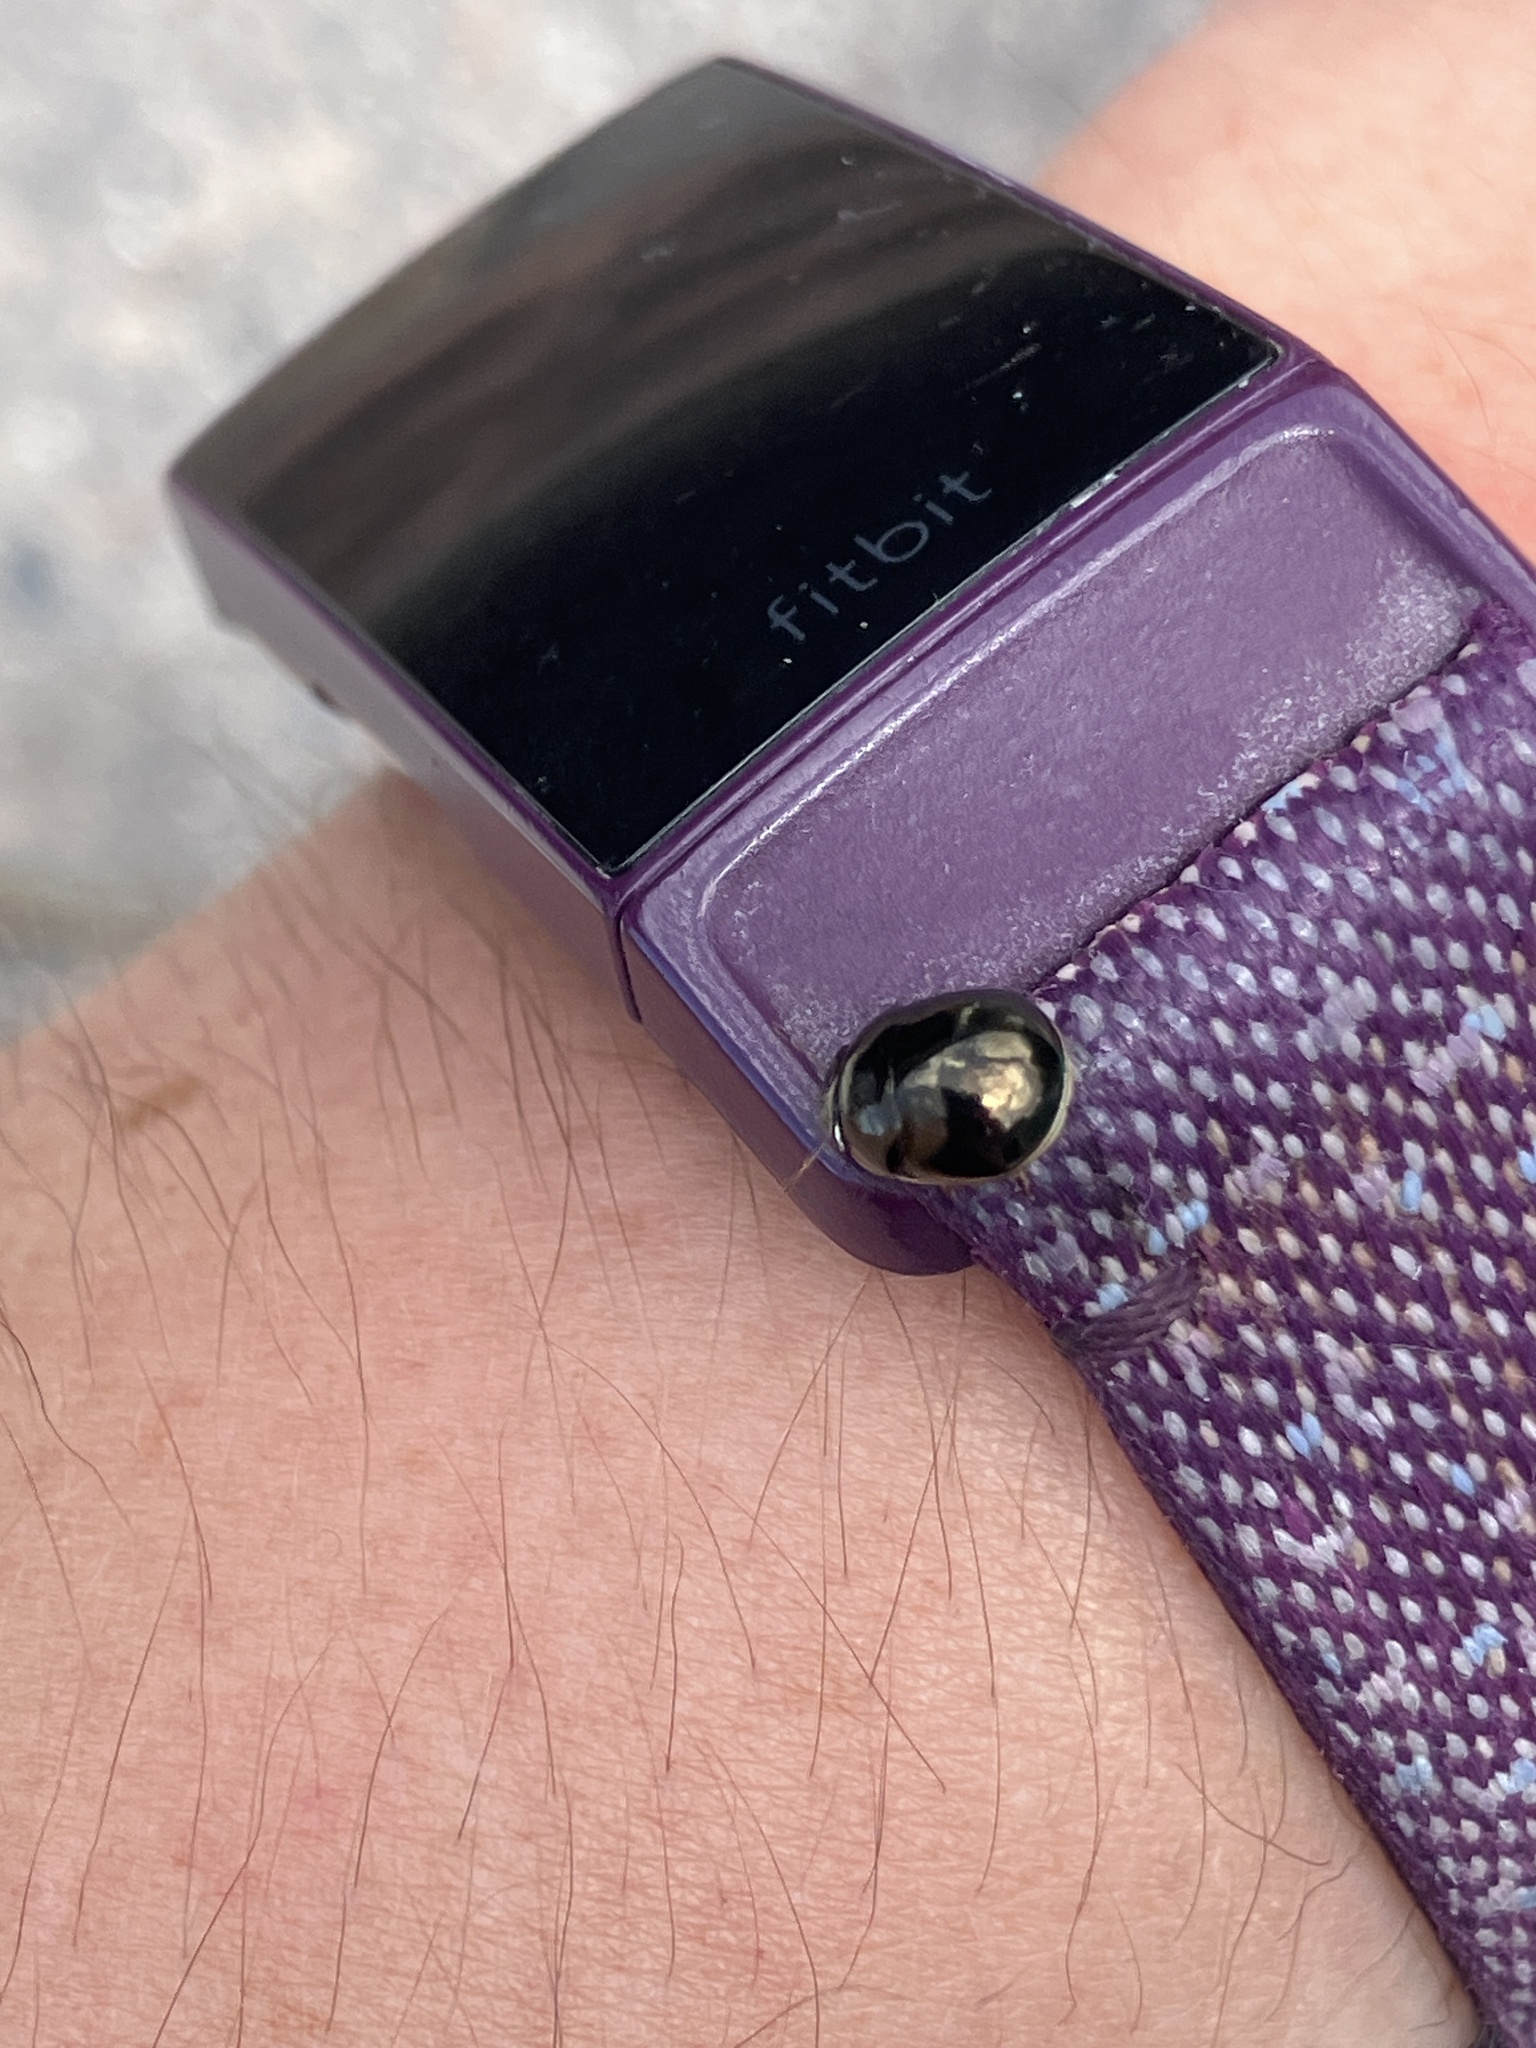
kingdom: Animalia
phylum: Arthropoda
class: Insecta
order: Hemiptera
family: Plataspidae
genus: Brachyplatys
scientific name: Brachyplatys subaeneus
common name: Black bean bug
